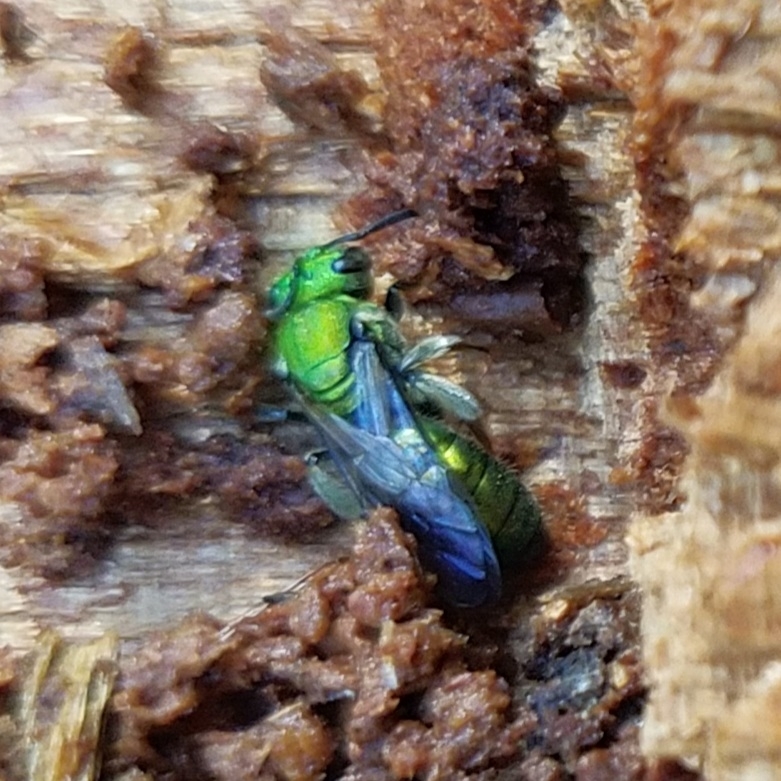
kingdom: Animalia
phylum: Arthropoda
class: Insecta
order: Hymenoptera
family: Halictidae
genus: Augochlora
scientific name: Augochlora pura
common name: Pure green sweat bee
